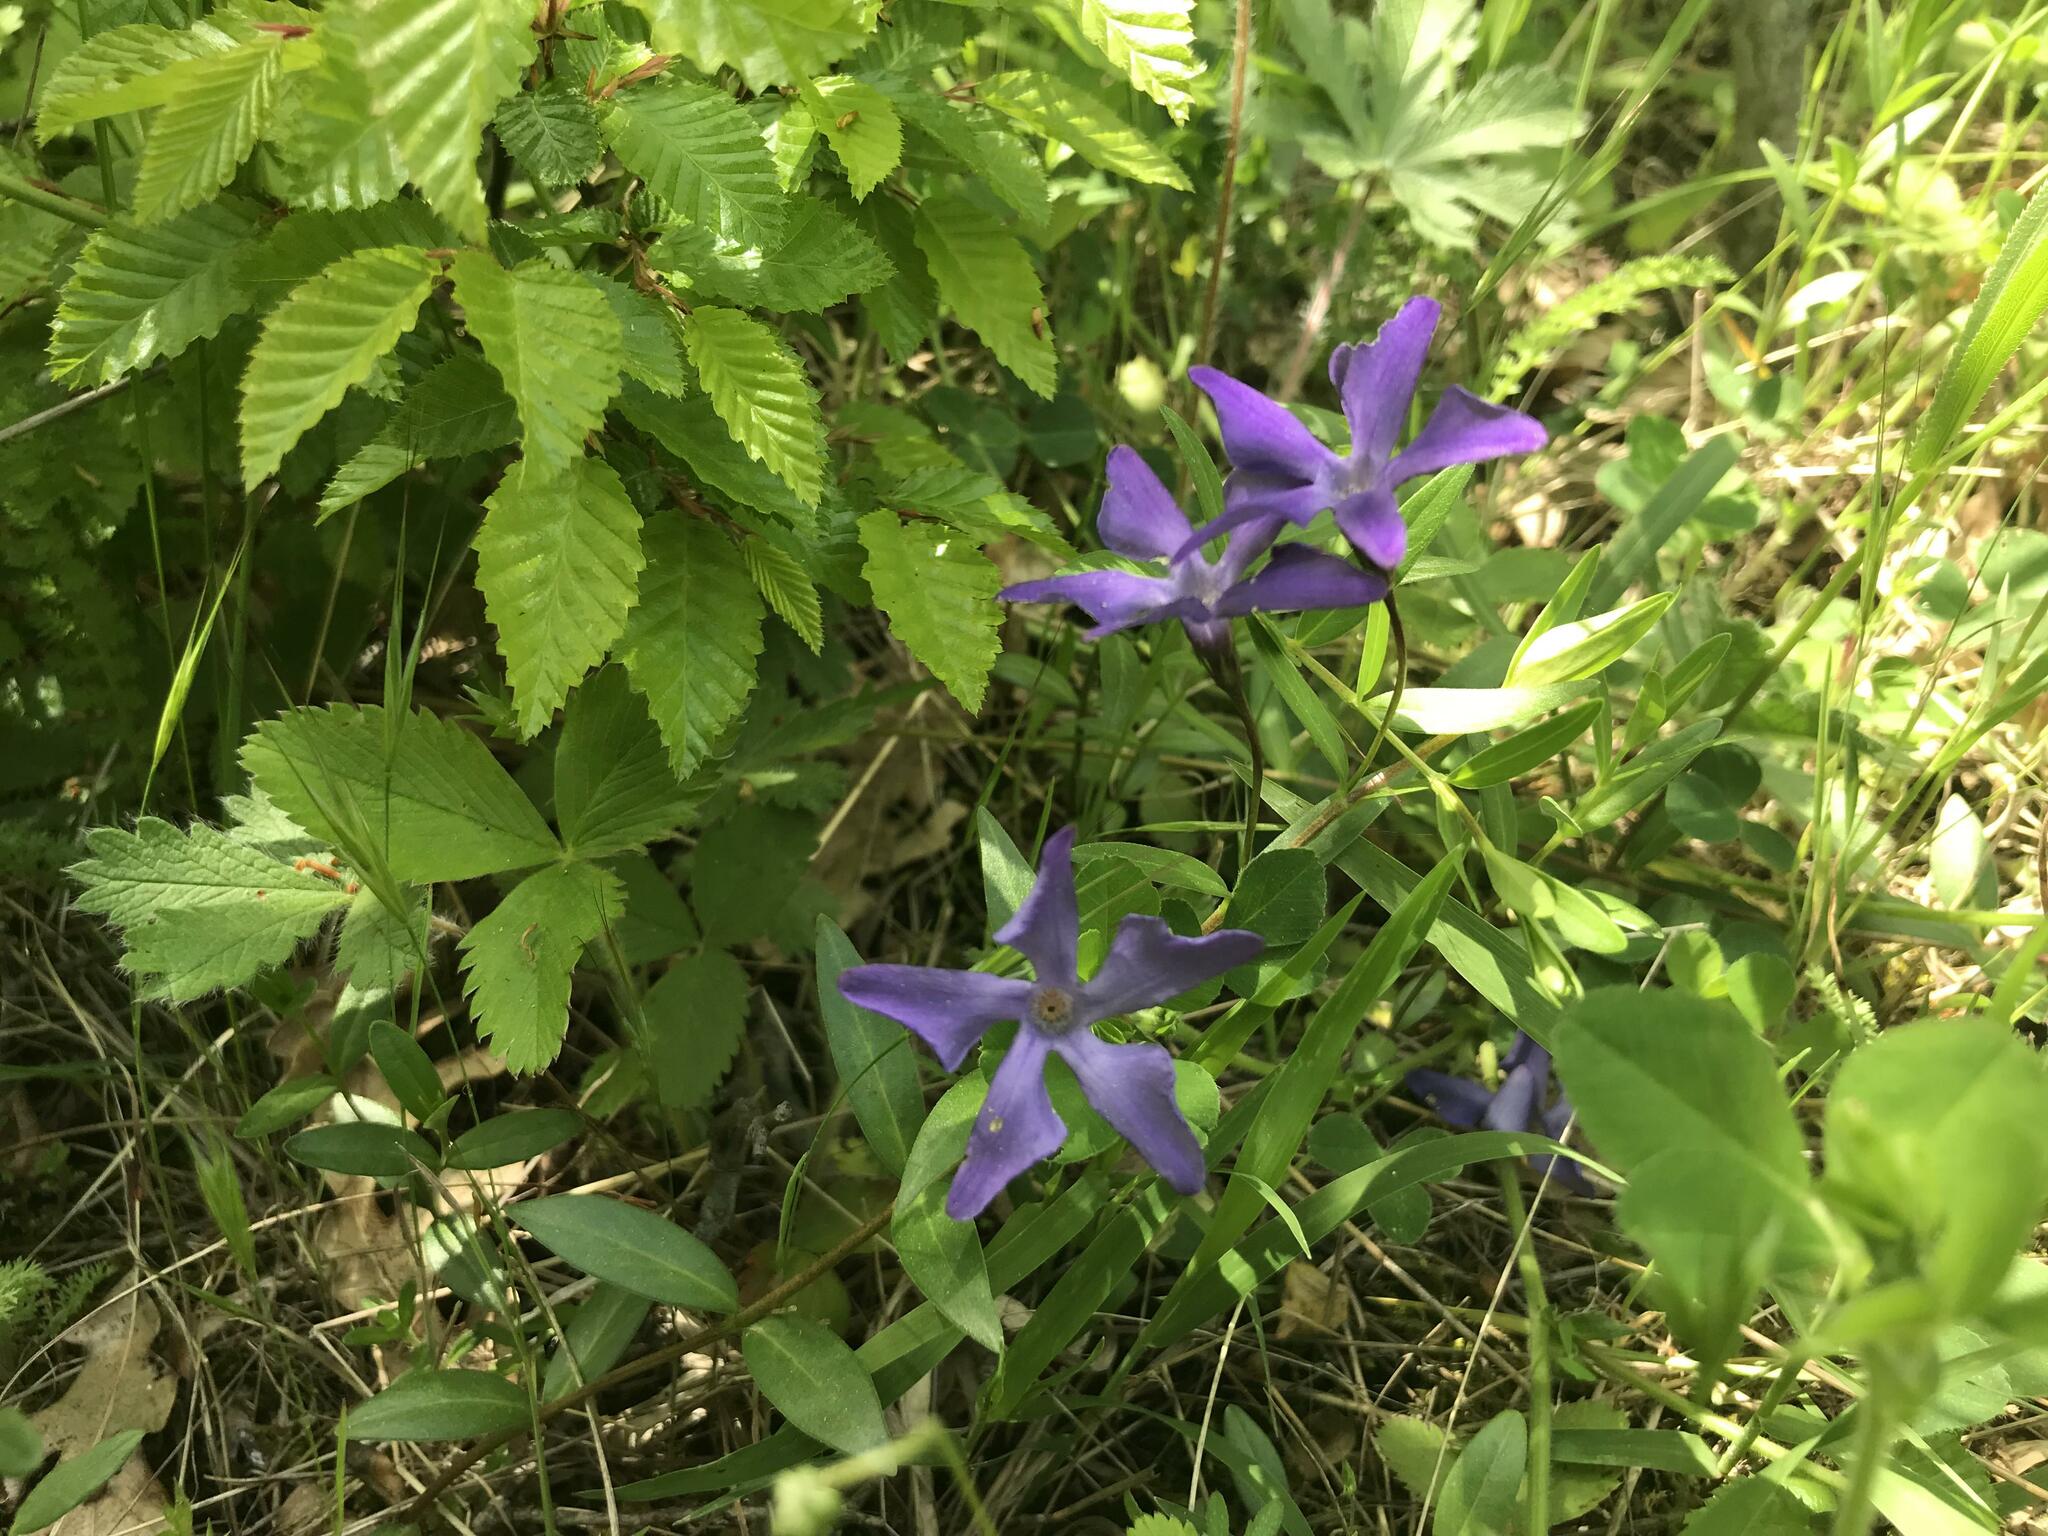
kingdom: Plantae
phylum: Tracheophyta
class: Magnoliopsida
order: Gentianales
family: Apocynaceae
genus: Vinca
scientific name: Vinca herbacea
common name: Herbaceous periwinkle
